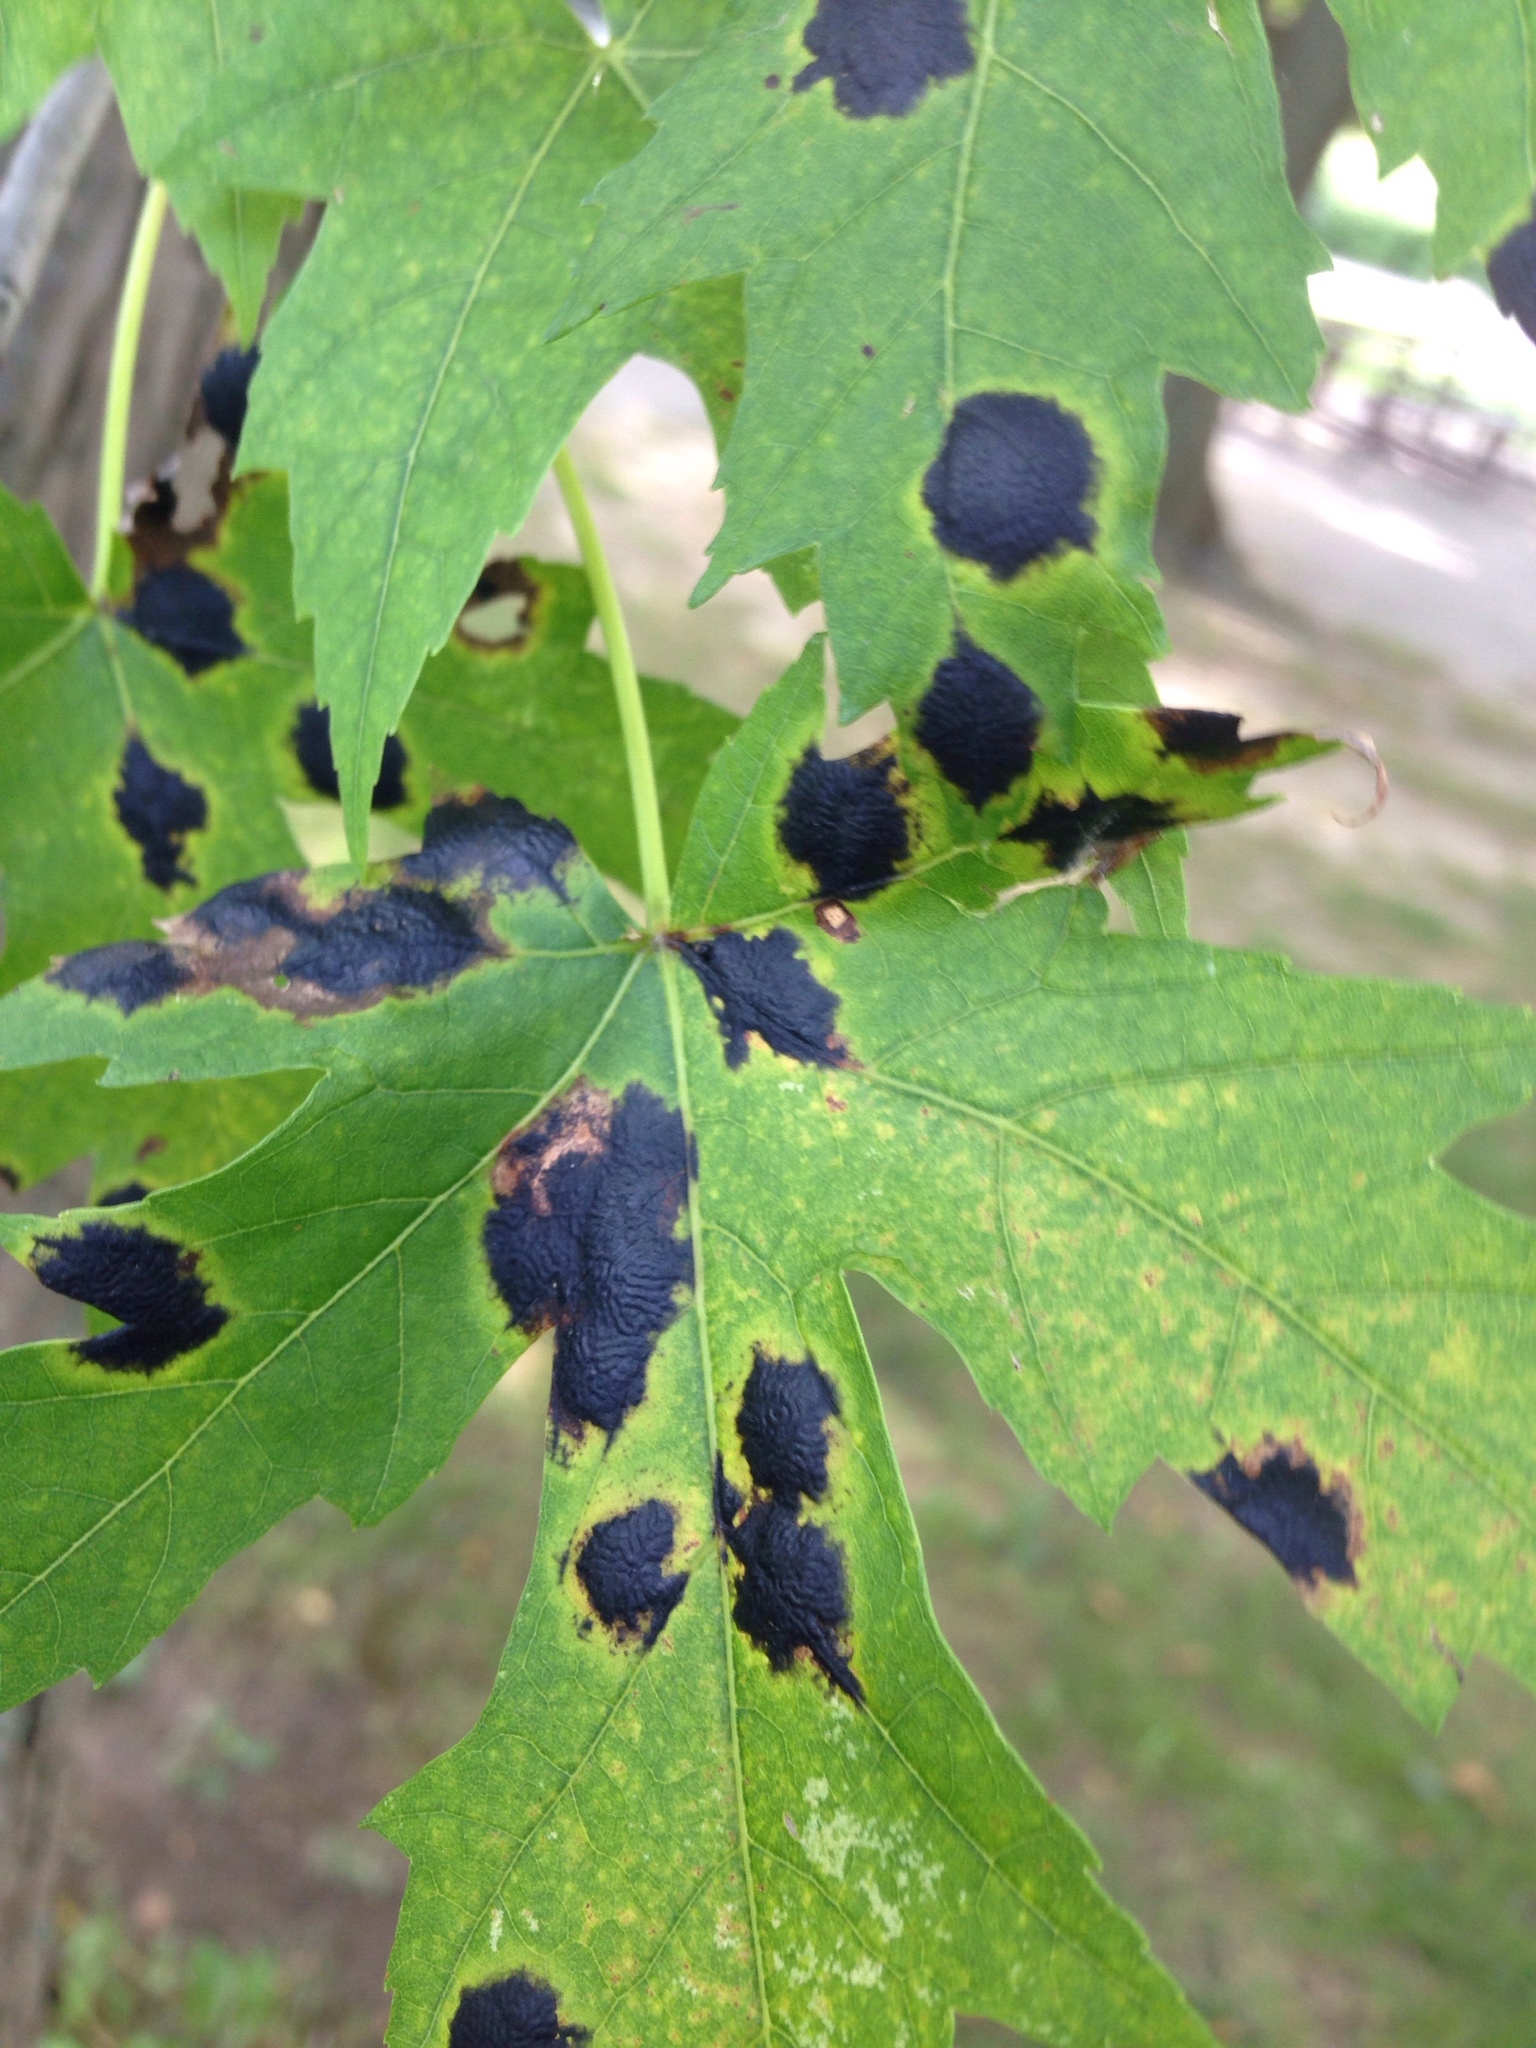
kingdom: Fungi
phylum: Ascomycota
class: Leotiomycetes
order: Rhytismatales
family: Rhytismataceae
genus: Rhytisma
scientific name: Rhytisma americanum
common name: American tar spot
